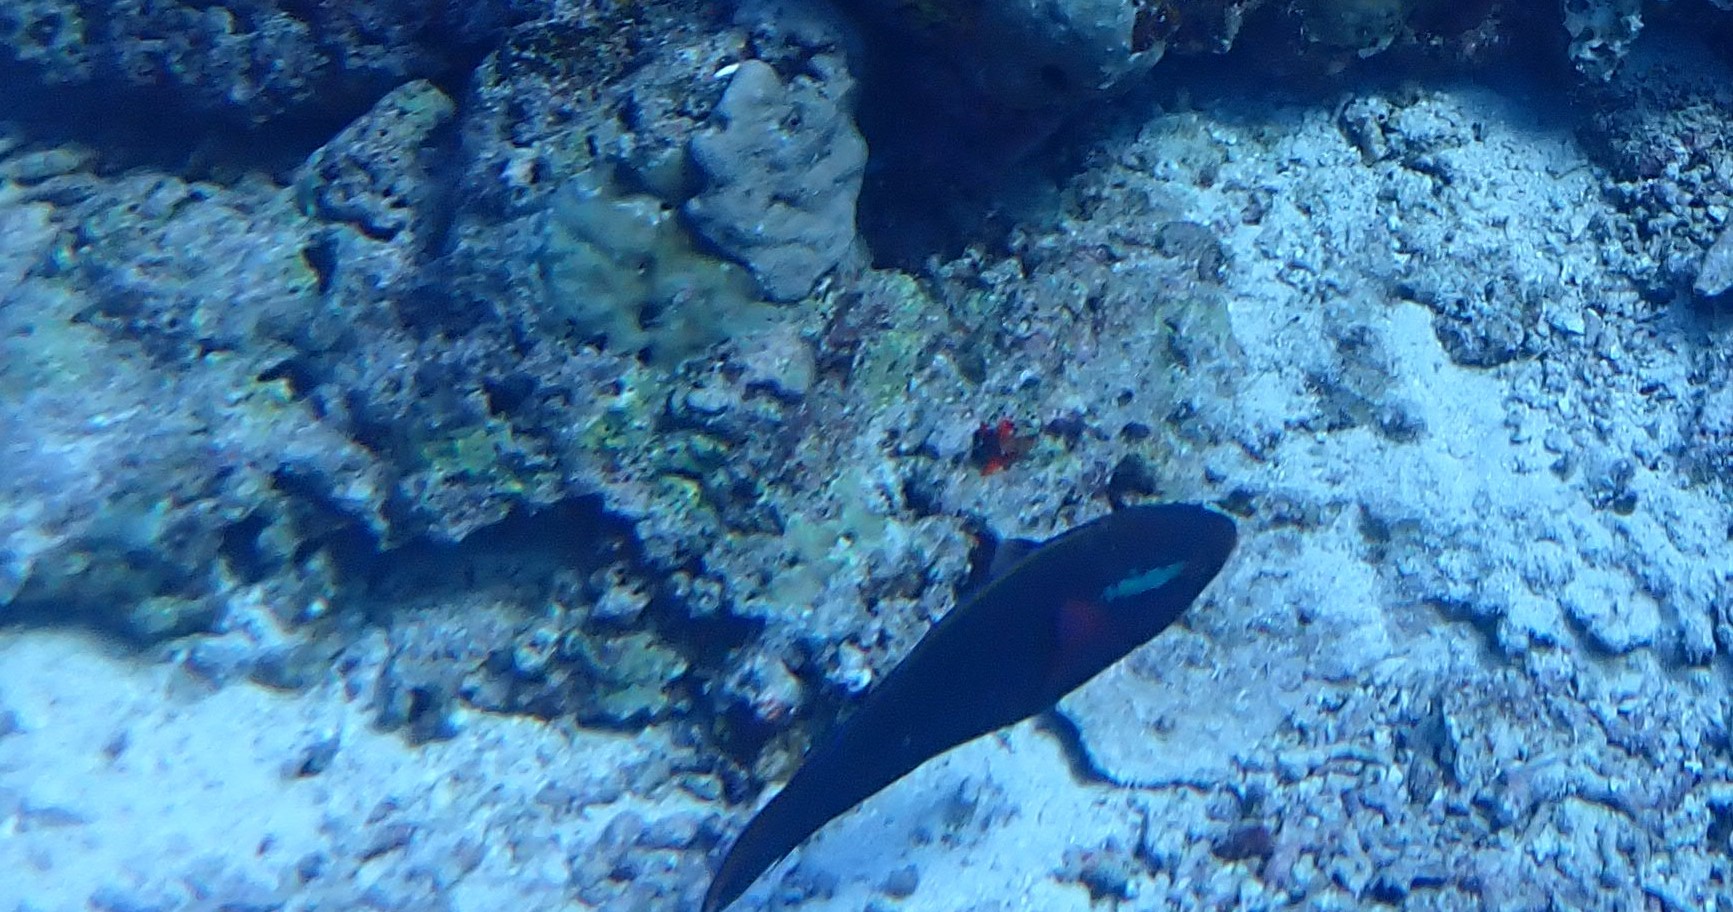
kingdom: Animalia
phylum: Chordata
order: Perciformes
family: Scaridae
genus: Scarus
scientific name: Scarus niger
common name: Dusky parrotfish
